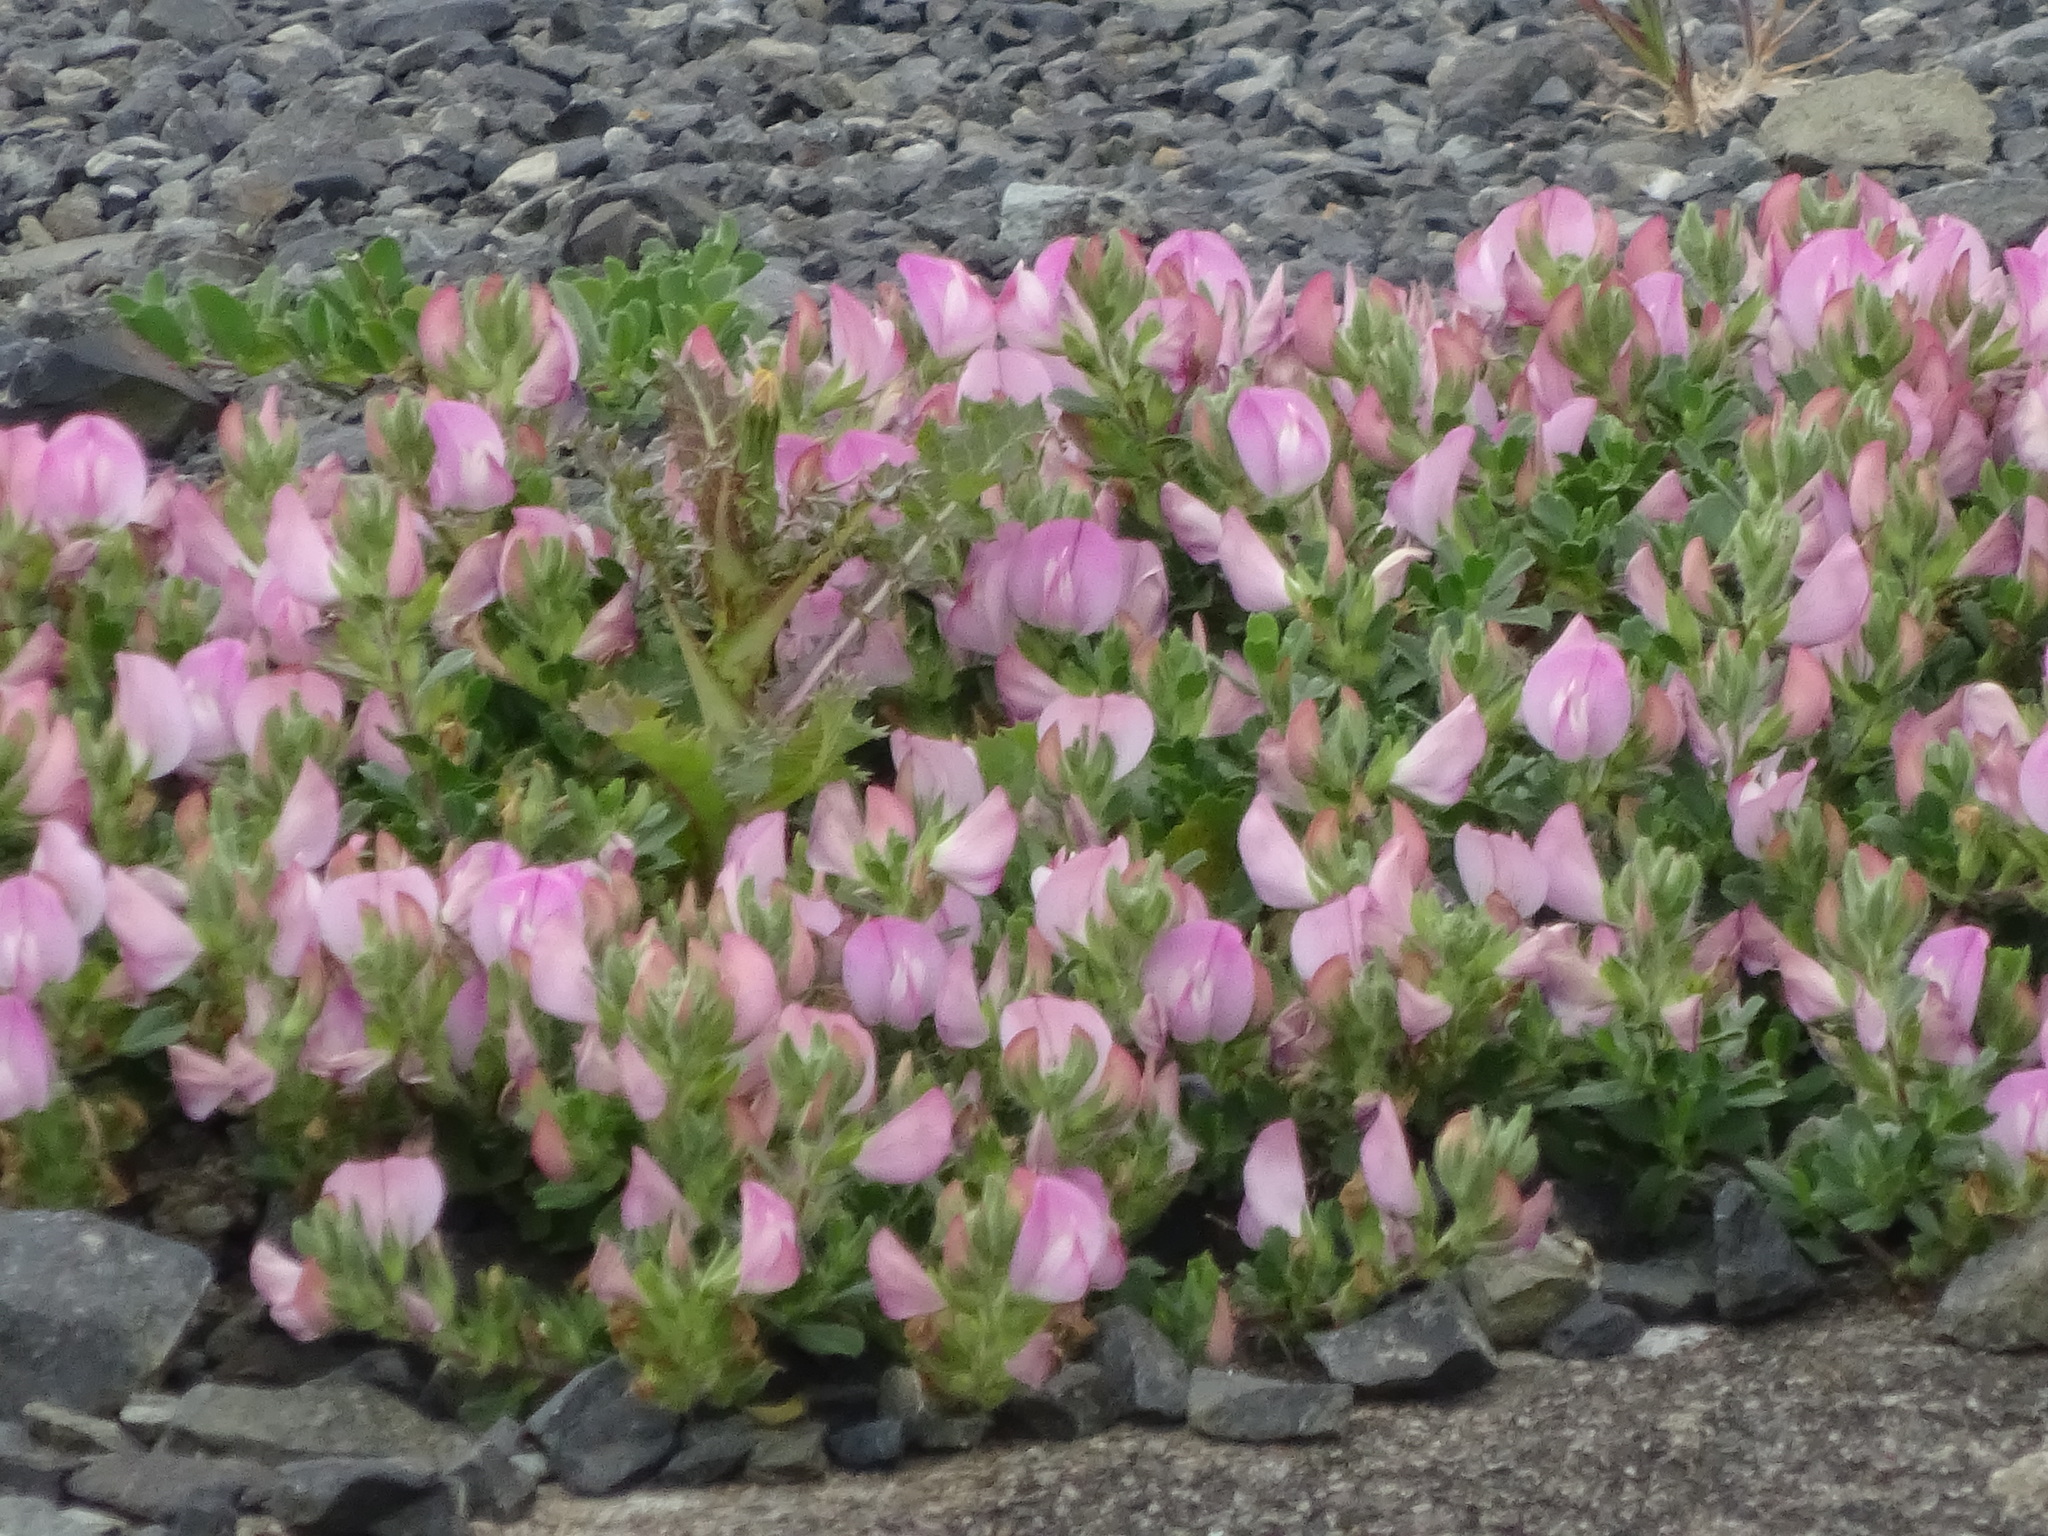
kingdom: Plantae
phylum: Tracheophyta
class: Magnoliopsida
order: Fabales
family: Fabaceae
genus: Ononis
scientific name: Ononis spinosa
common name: Spiny restharrow
